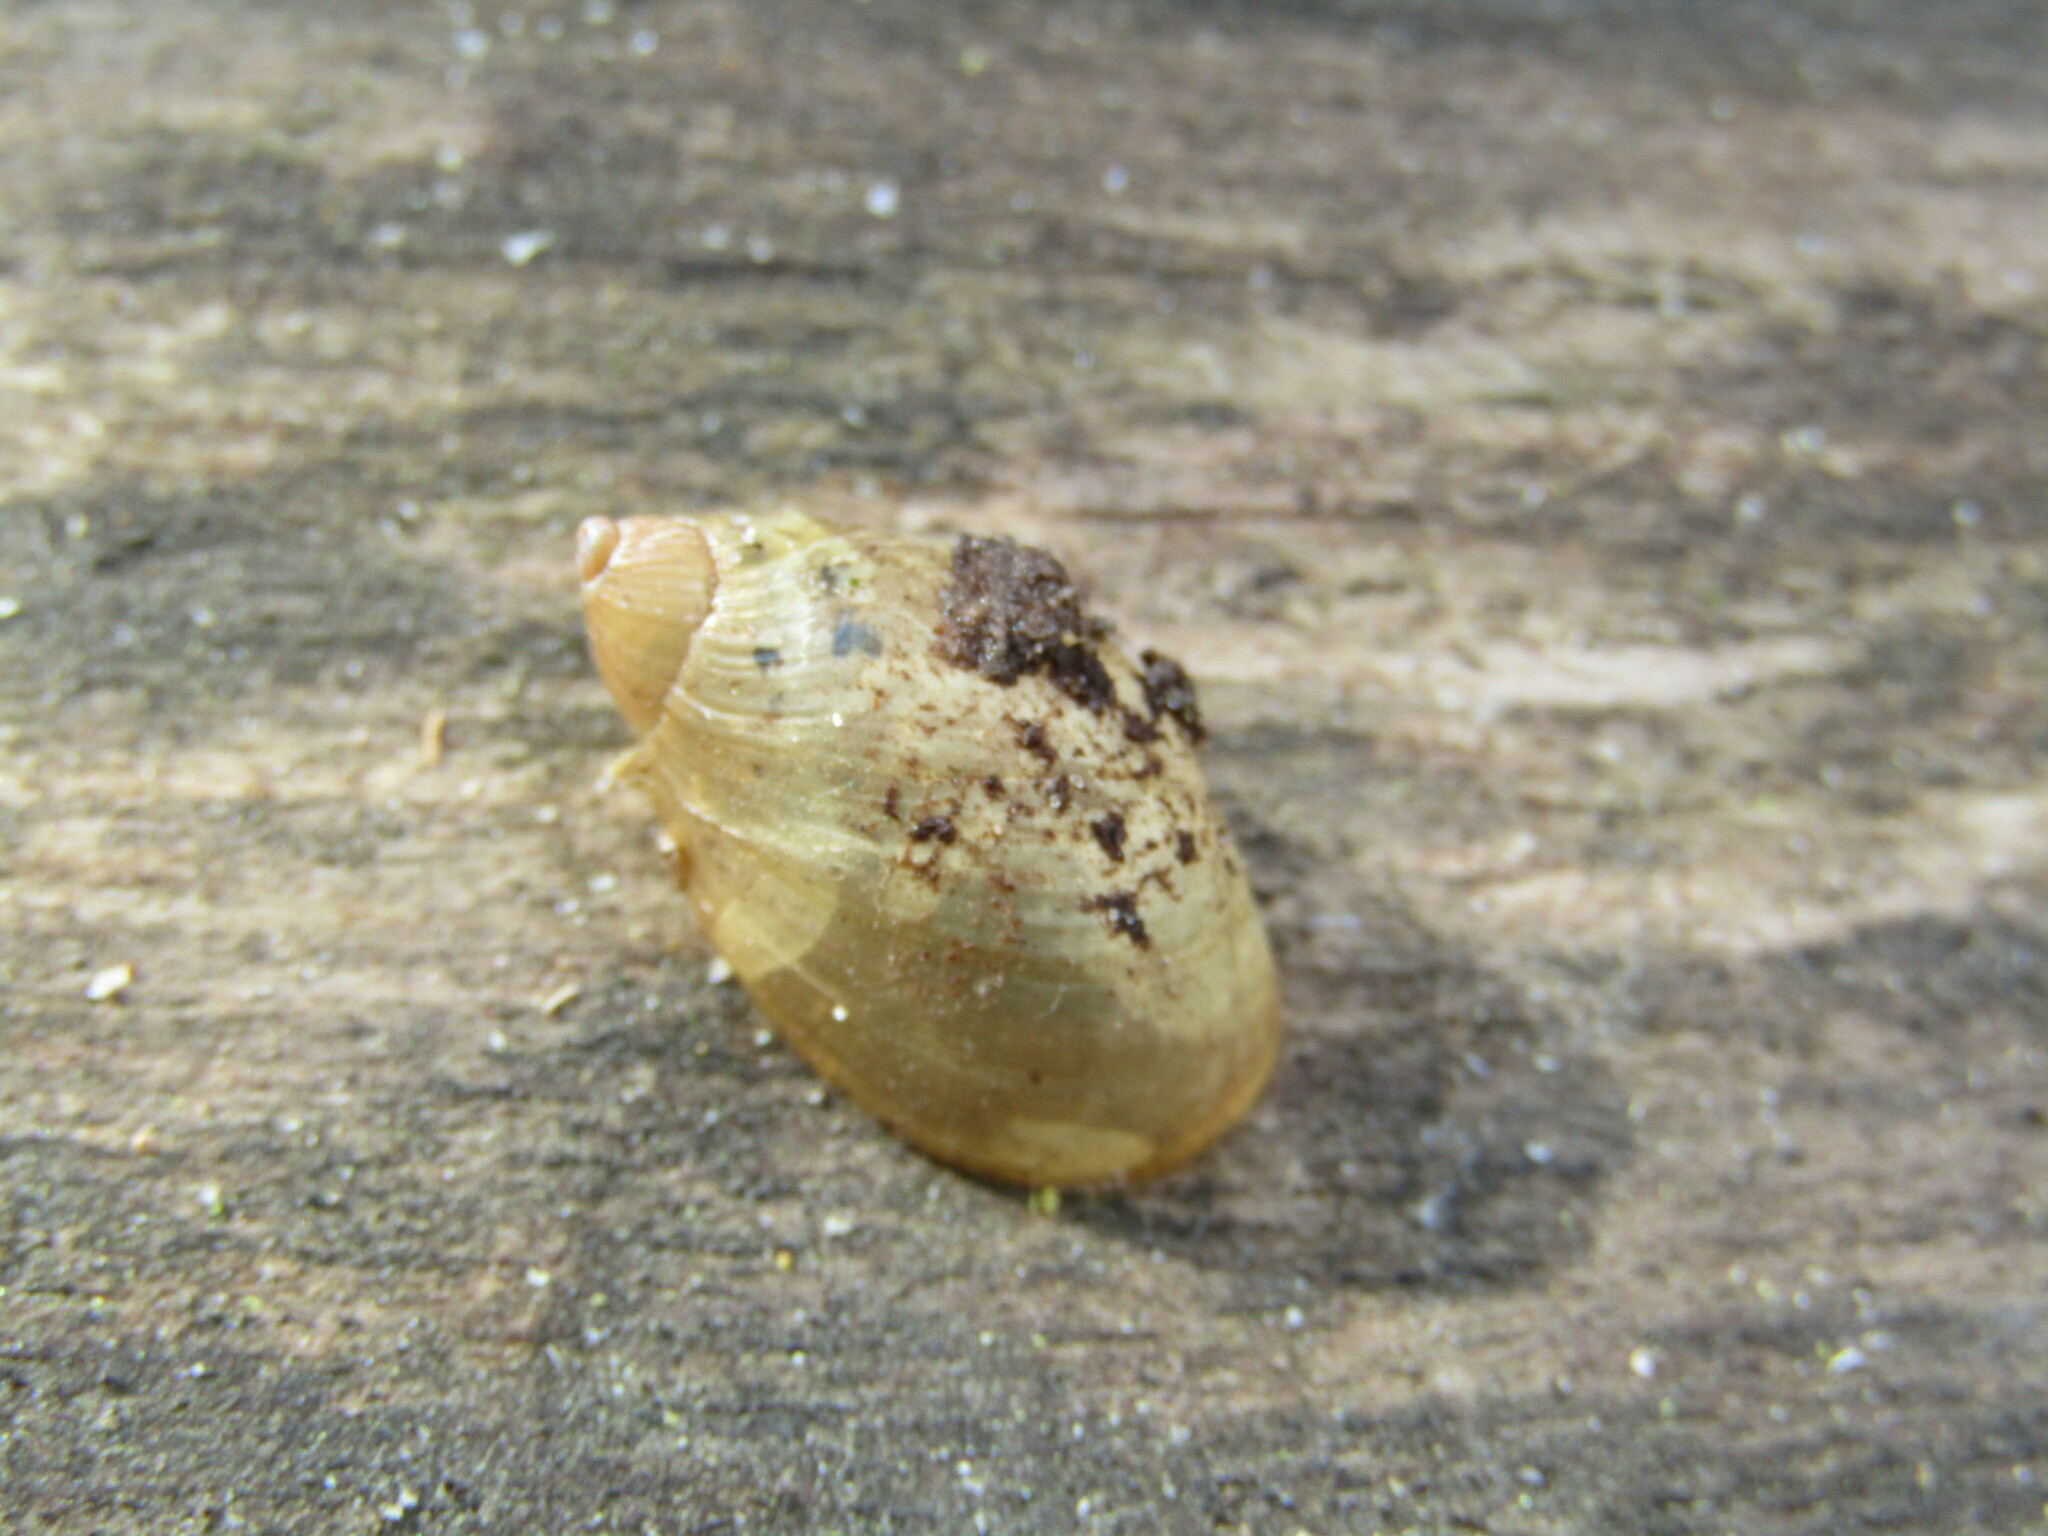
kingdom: Animalia
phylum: Mollusca
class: Gastropoda
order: Stylommatophora
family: Succineidae
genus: Succinea
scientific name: Succinea putris
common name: European ambersnail
